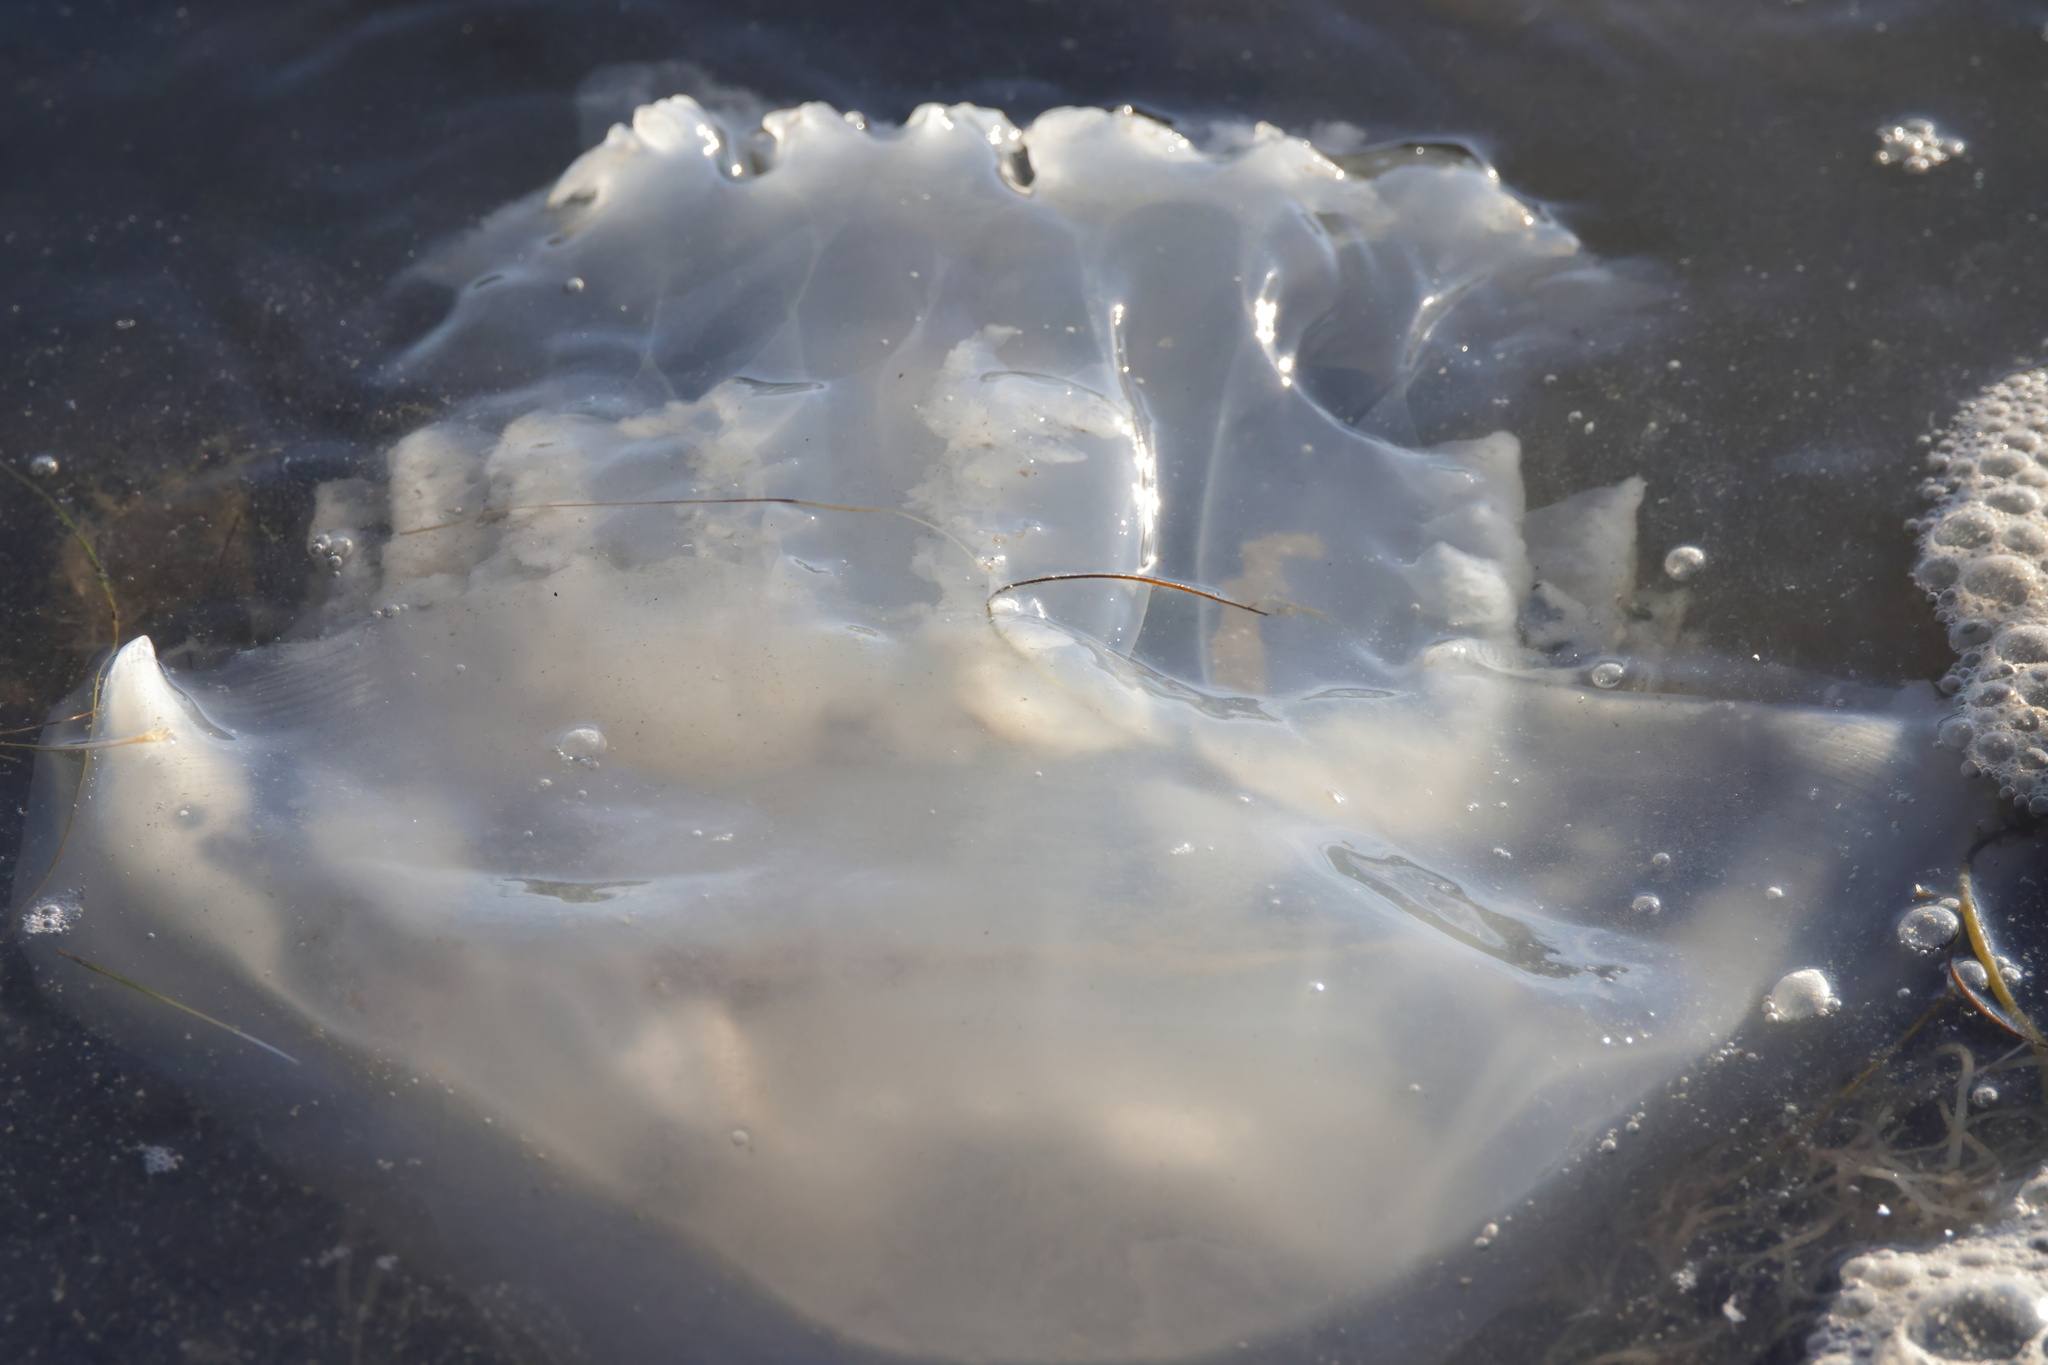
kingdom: Animalia
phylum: Cnidaria
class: Scyphozoa
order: Rhizostomeae
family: Stomolophidae
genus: Stomolophus
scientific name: Stomolophus meleagris
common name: Cabbagehead
